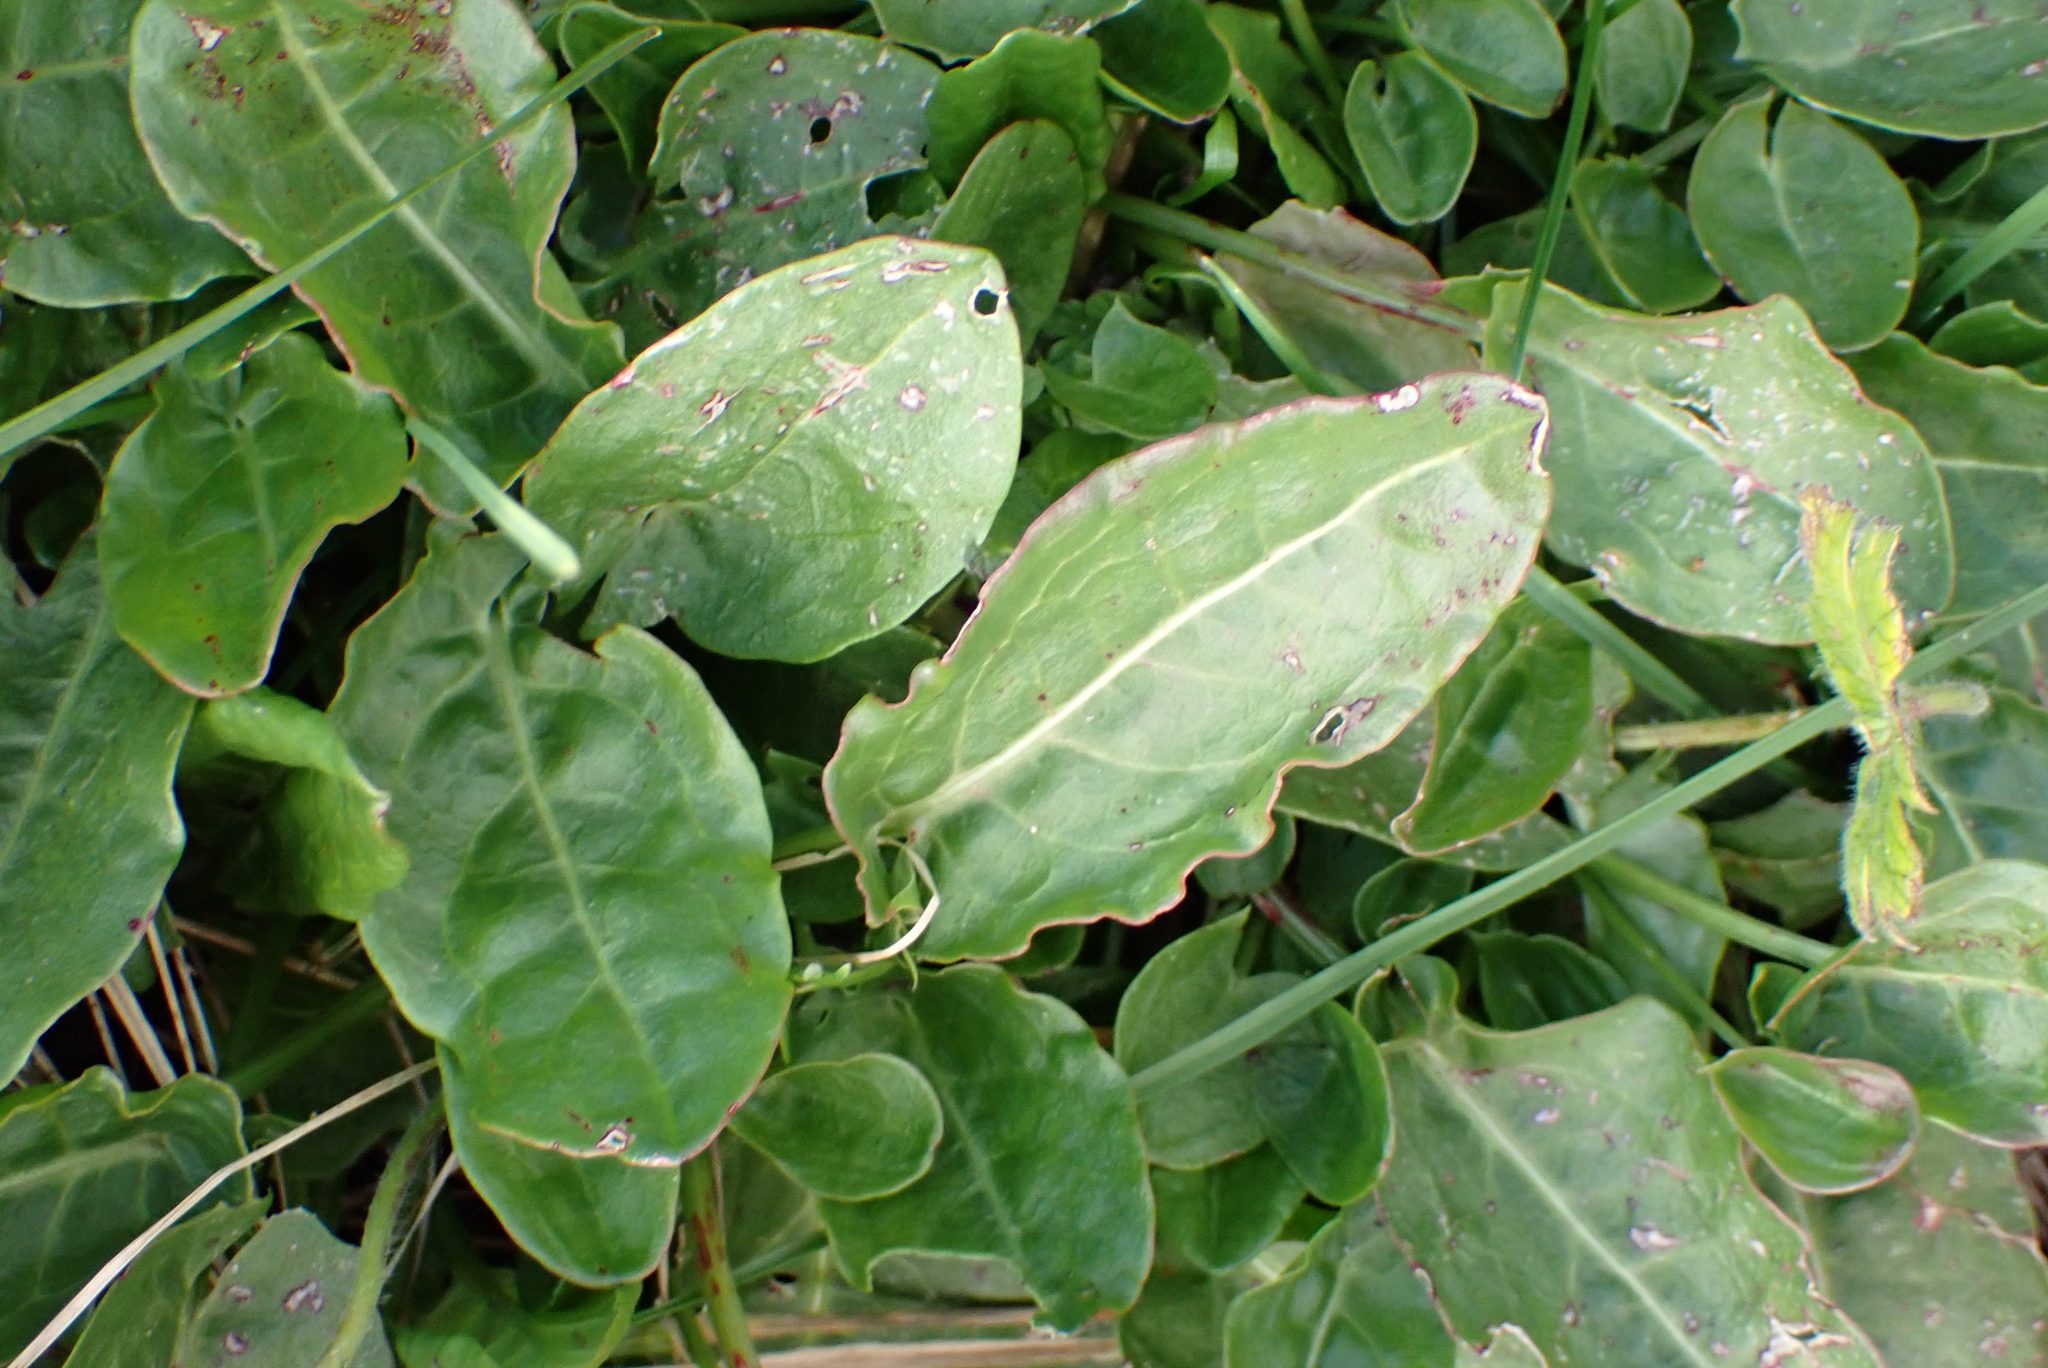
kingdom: Plantae
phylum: Tracheophyta
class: Magnoliopsida
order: Caryophyllales
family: Polygonaceae
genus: Rumex
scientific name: Rumex acetosa
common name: Garden sorrel
